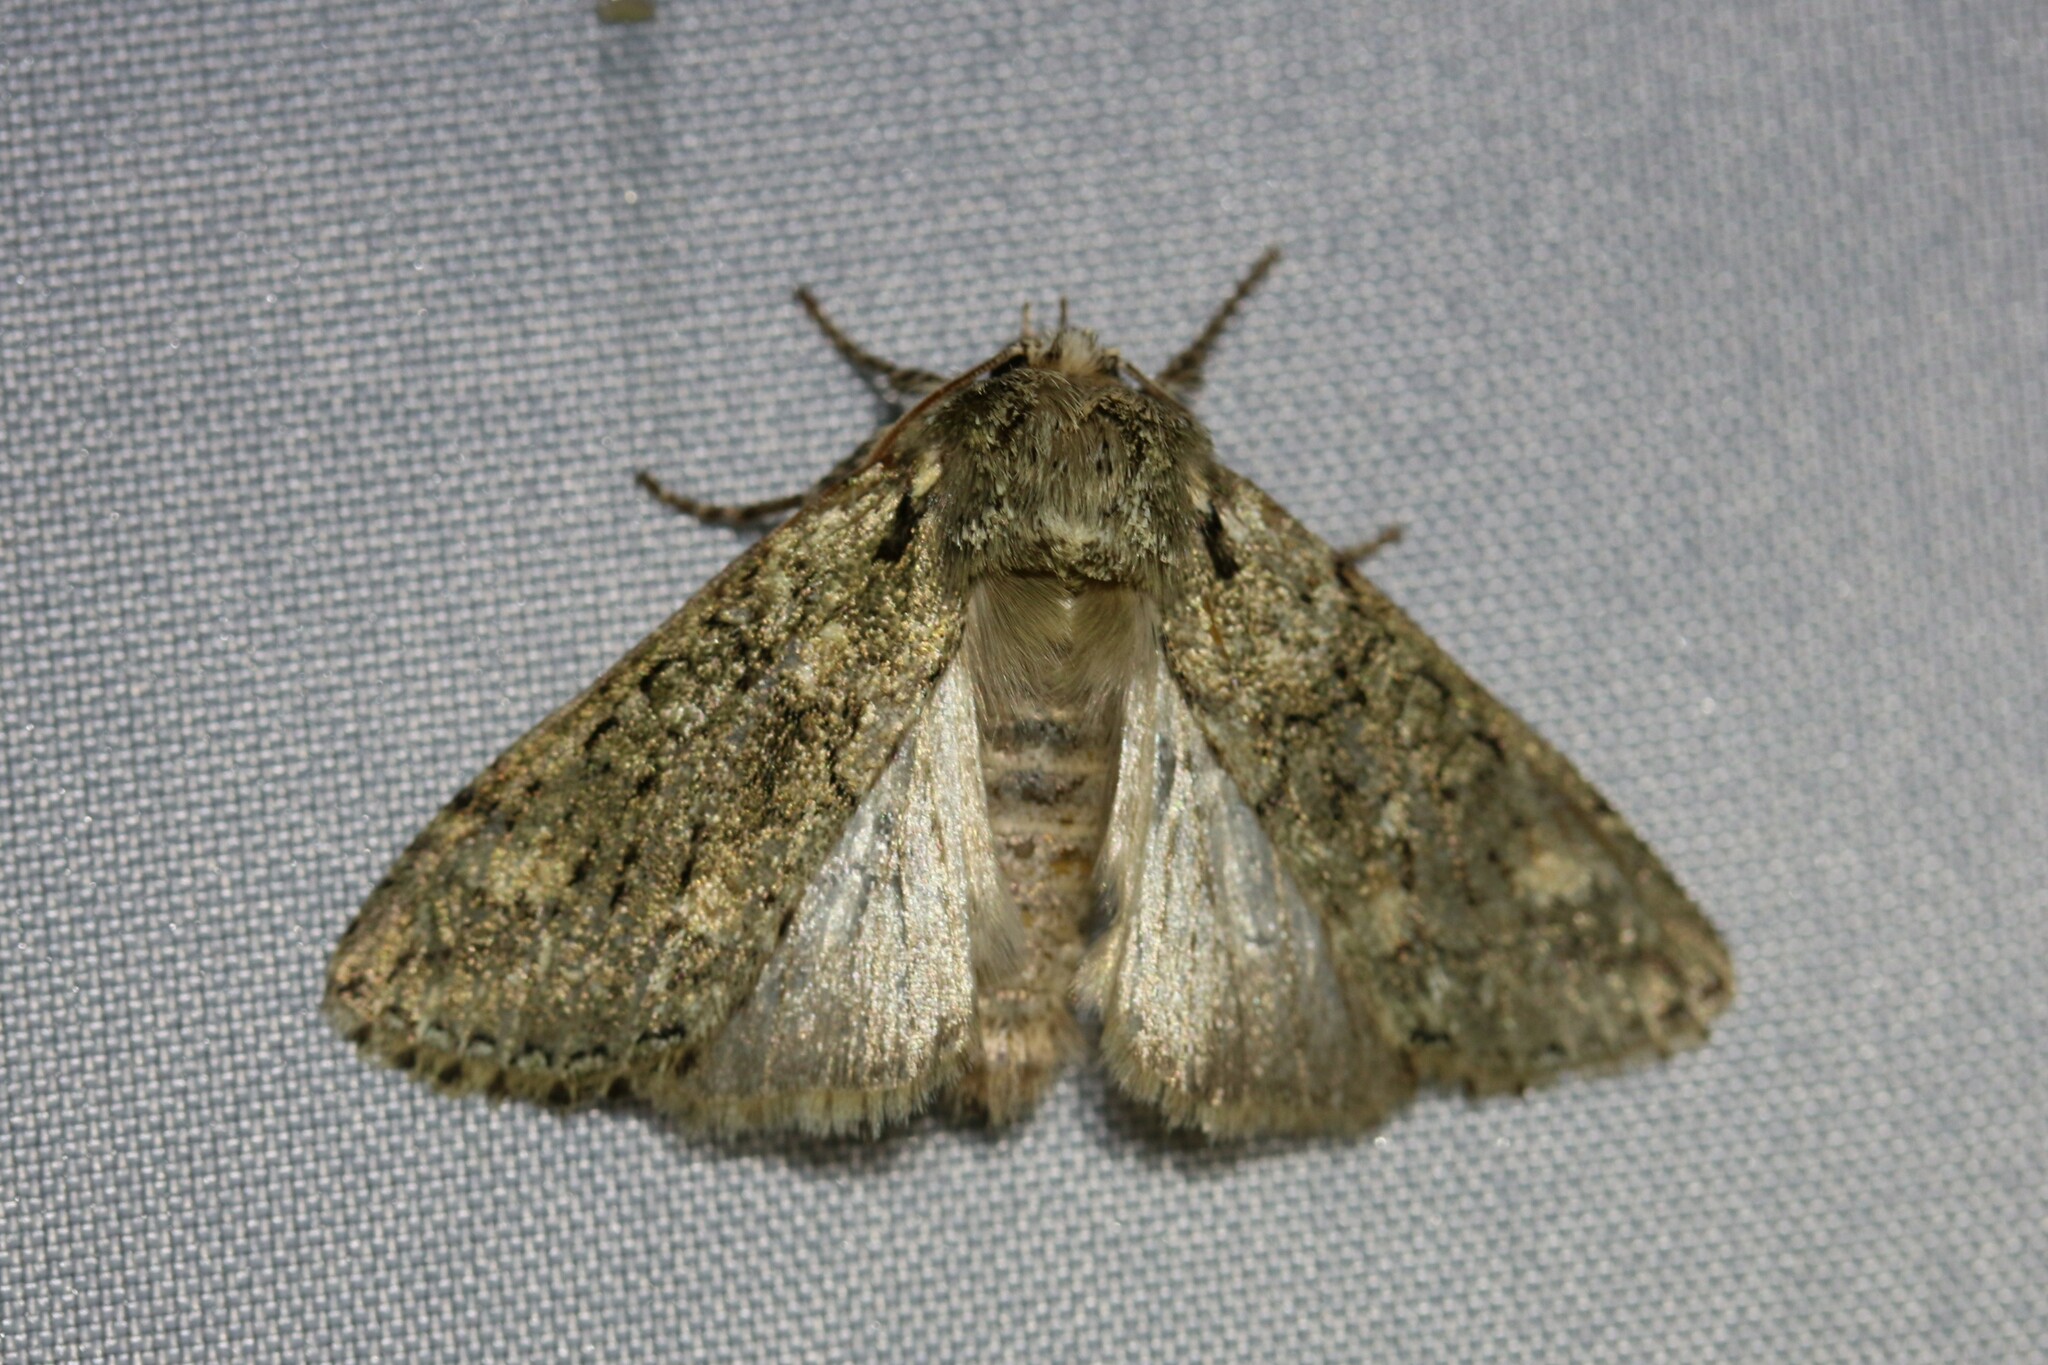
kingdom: Animalia
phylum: Arthropoda
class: Insecta
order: Lepidoptera
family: Drepanidae
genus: Polyploca
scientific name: Polyploca ridens
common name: Frosted green
